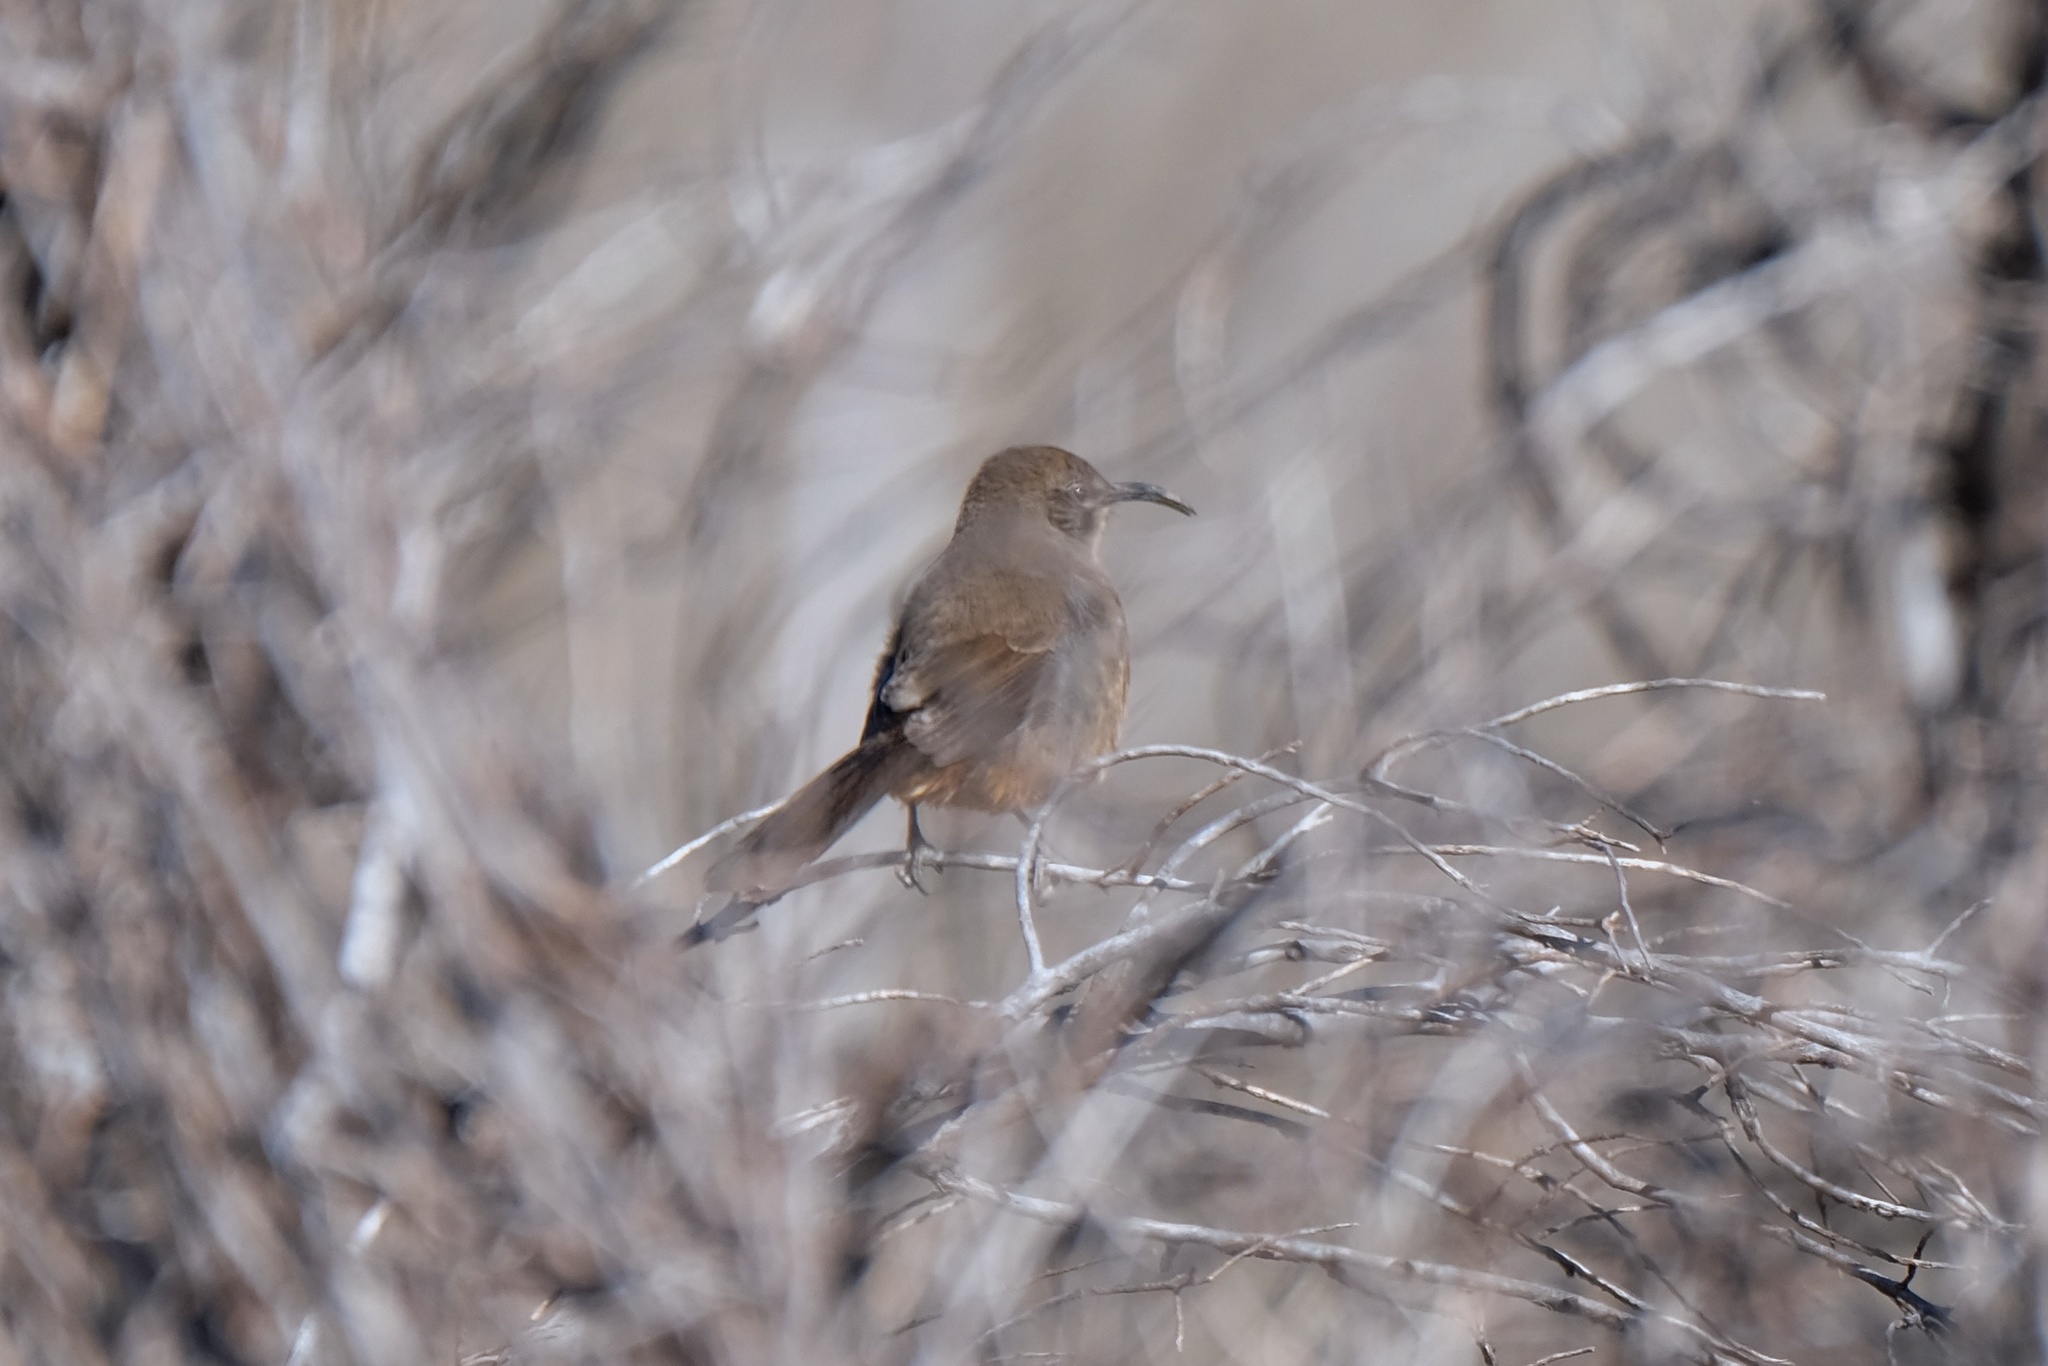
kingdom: Animalia
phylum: Chordata
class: Aves
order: Passeriformes
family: Mimidae
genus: Toxostoma
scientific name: Toxostoma redivivum
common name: California thrasher
